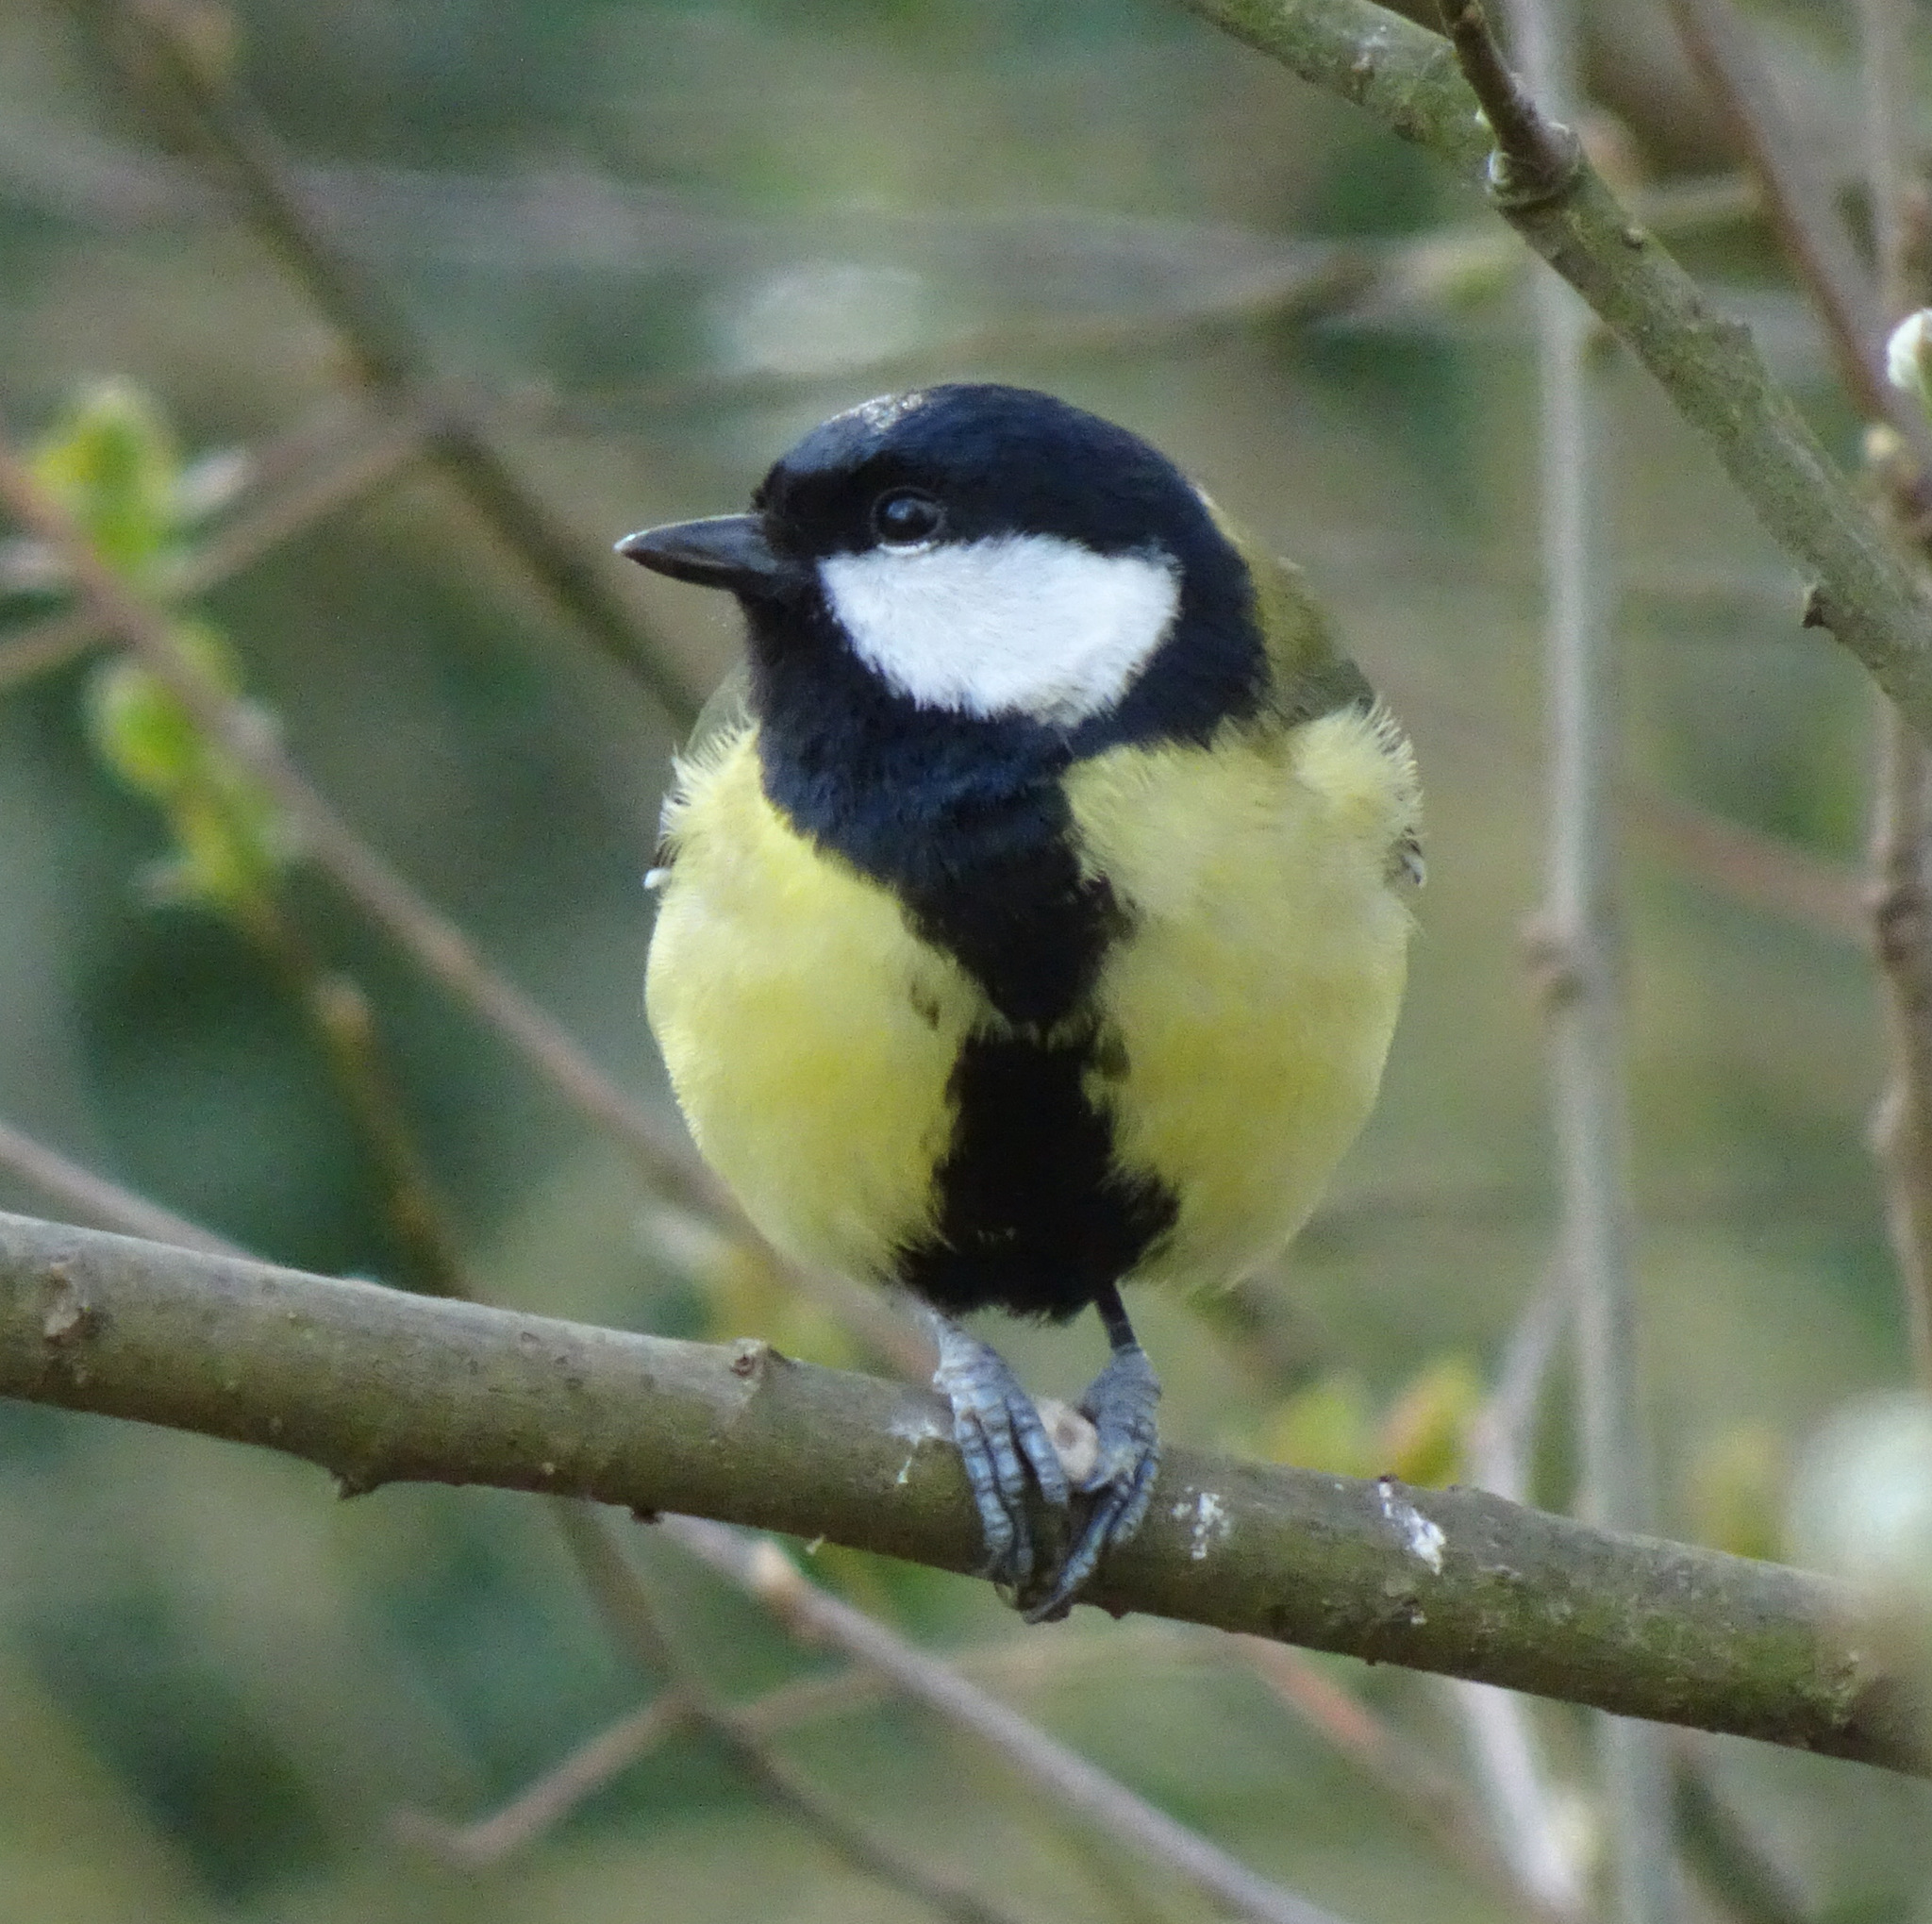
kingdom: Animalia
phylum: Chordata
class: Aves
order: Passeriformes
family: Paridae
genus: Parus
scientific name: Parus major
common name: Great tit
